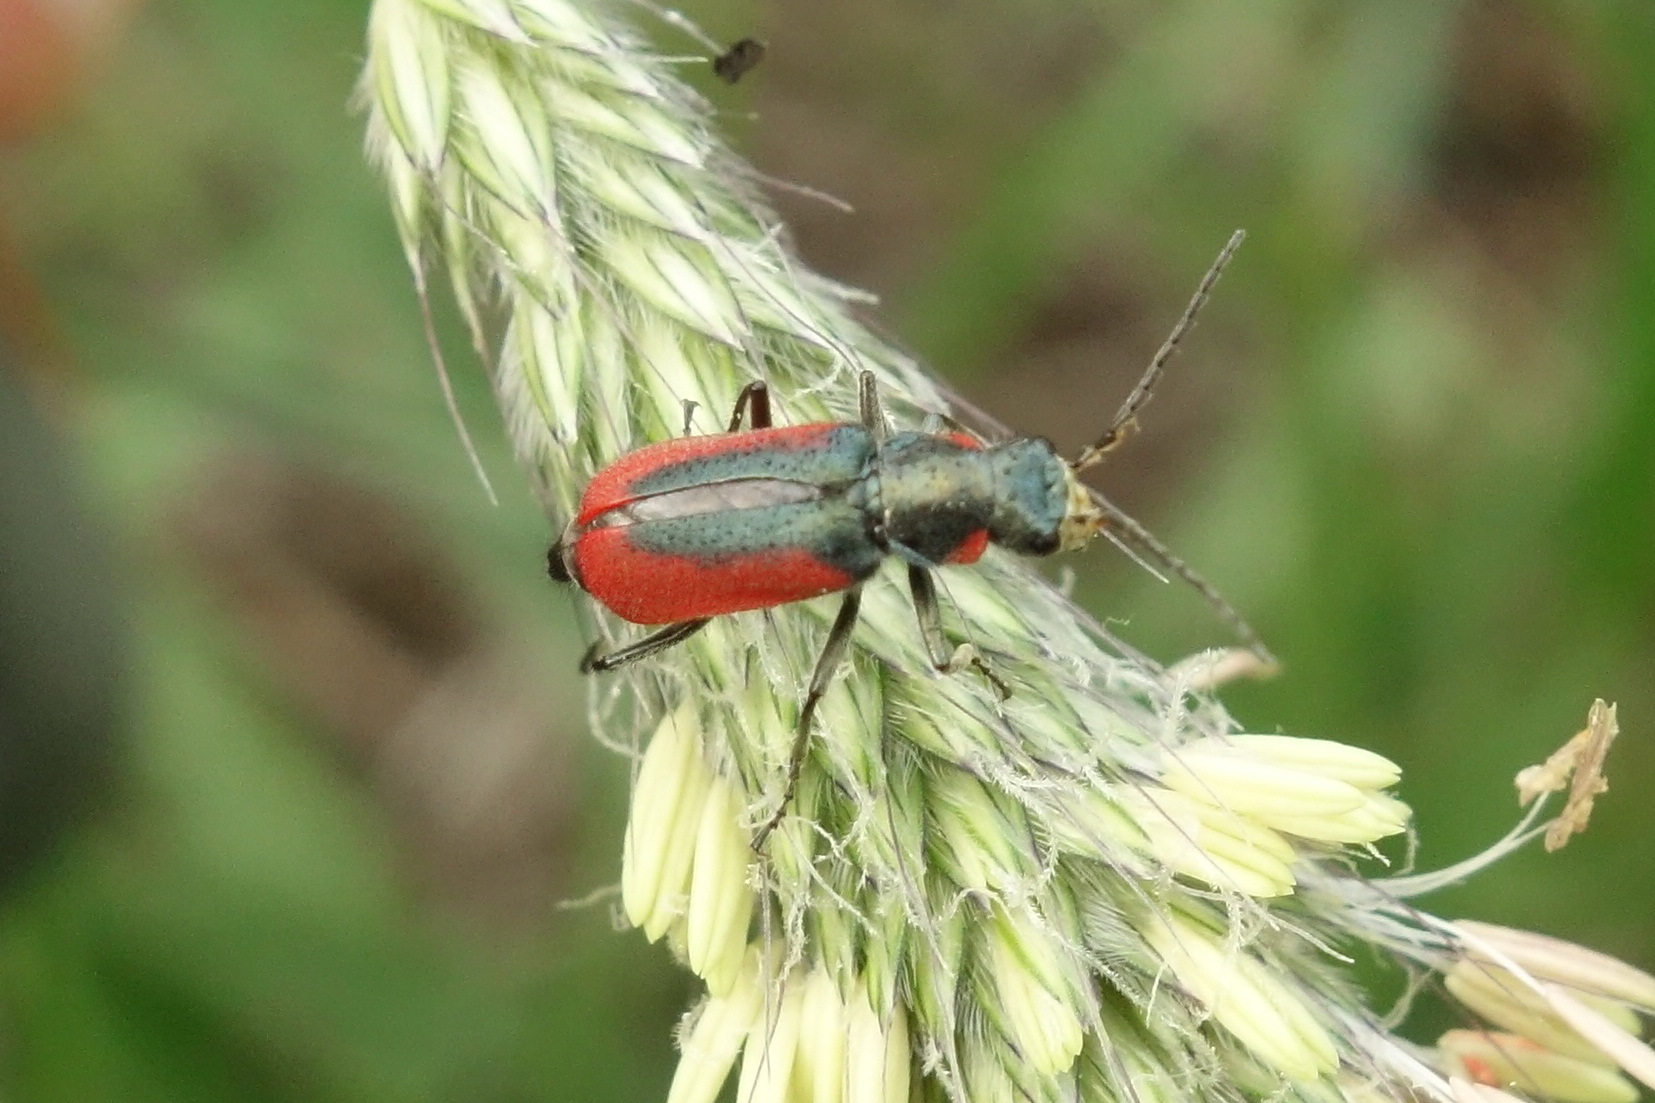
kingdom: Animalia
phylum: Arthropoda
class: Insecta
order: Coleoptera
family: Melyridae
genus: Malachius
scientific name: Malachius aeneus
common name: Scarlet malachite beetle
